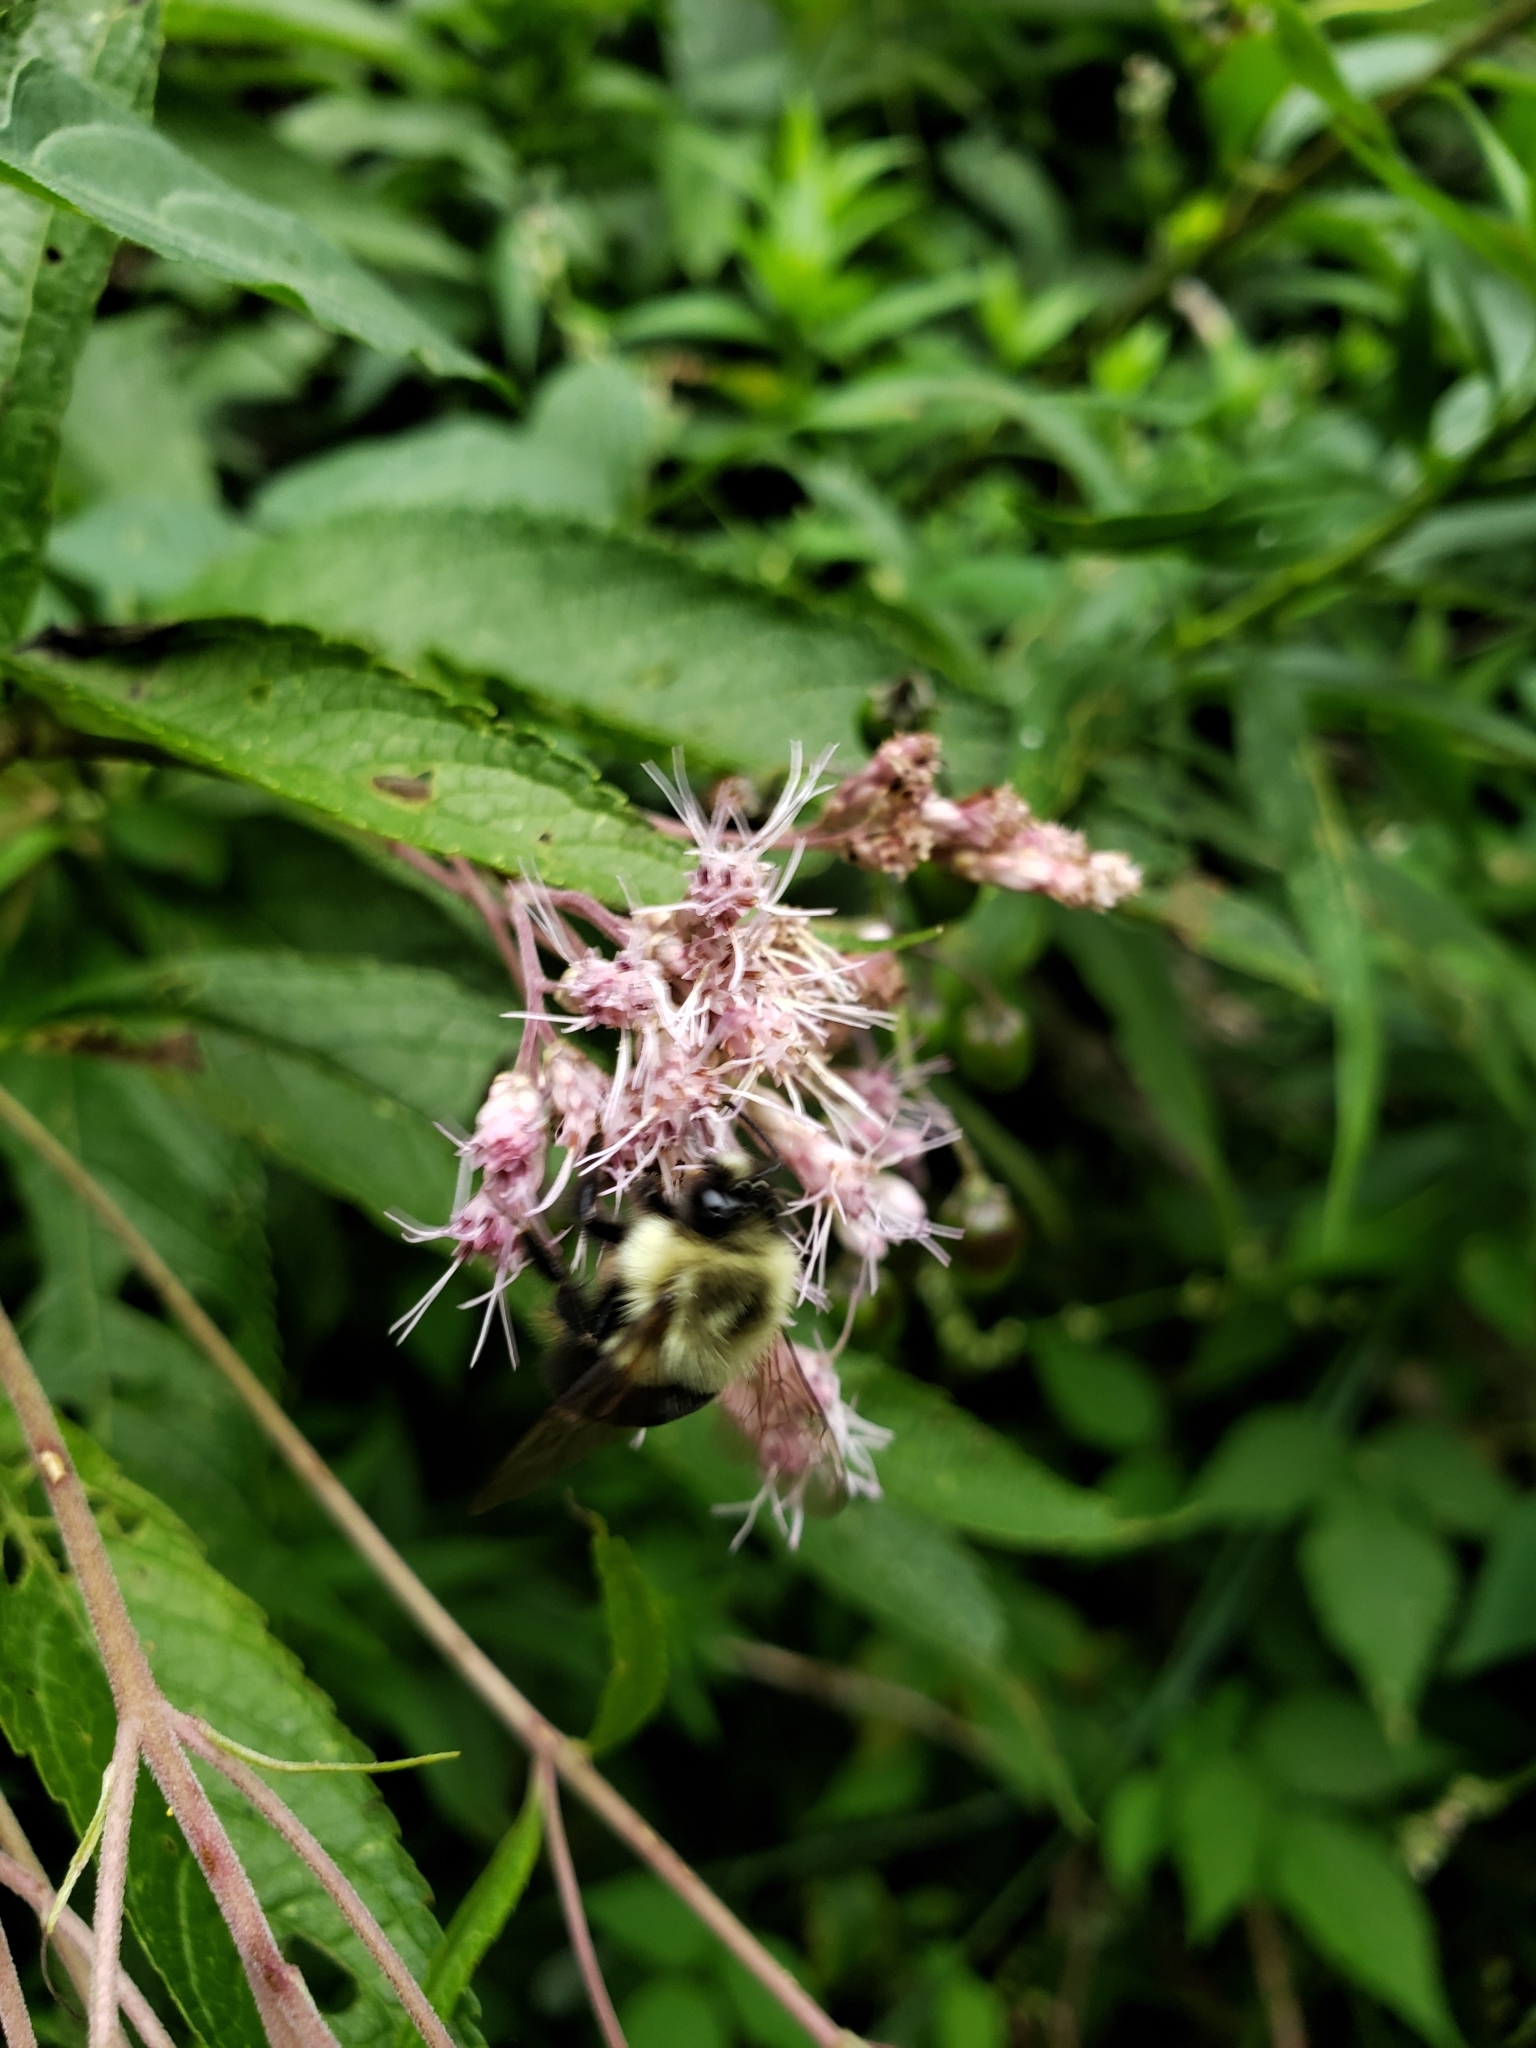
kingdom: Animalia
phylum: Arthropoda
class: Insecta
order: Hymenoptera
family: Apidae
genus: Bombus
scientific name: Bombus impatiens
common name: Common eastern bumble bee
